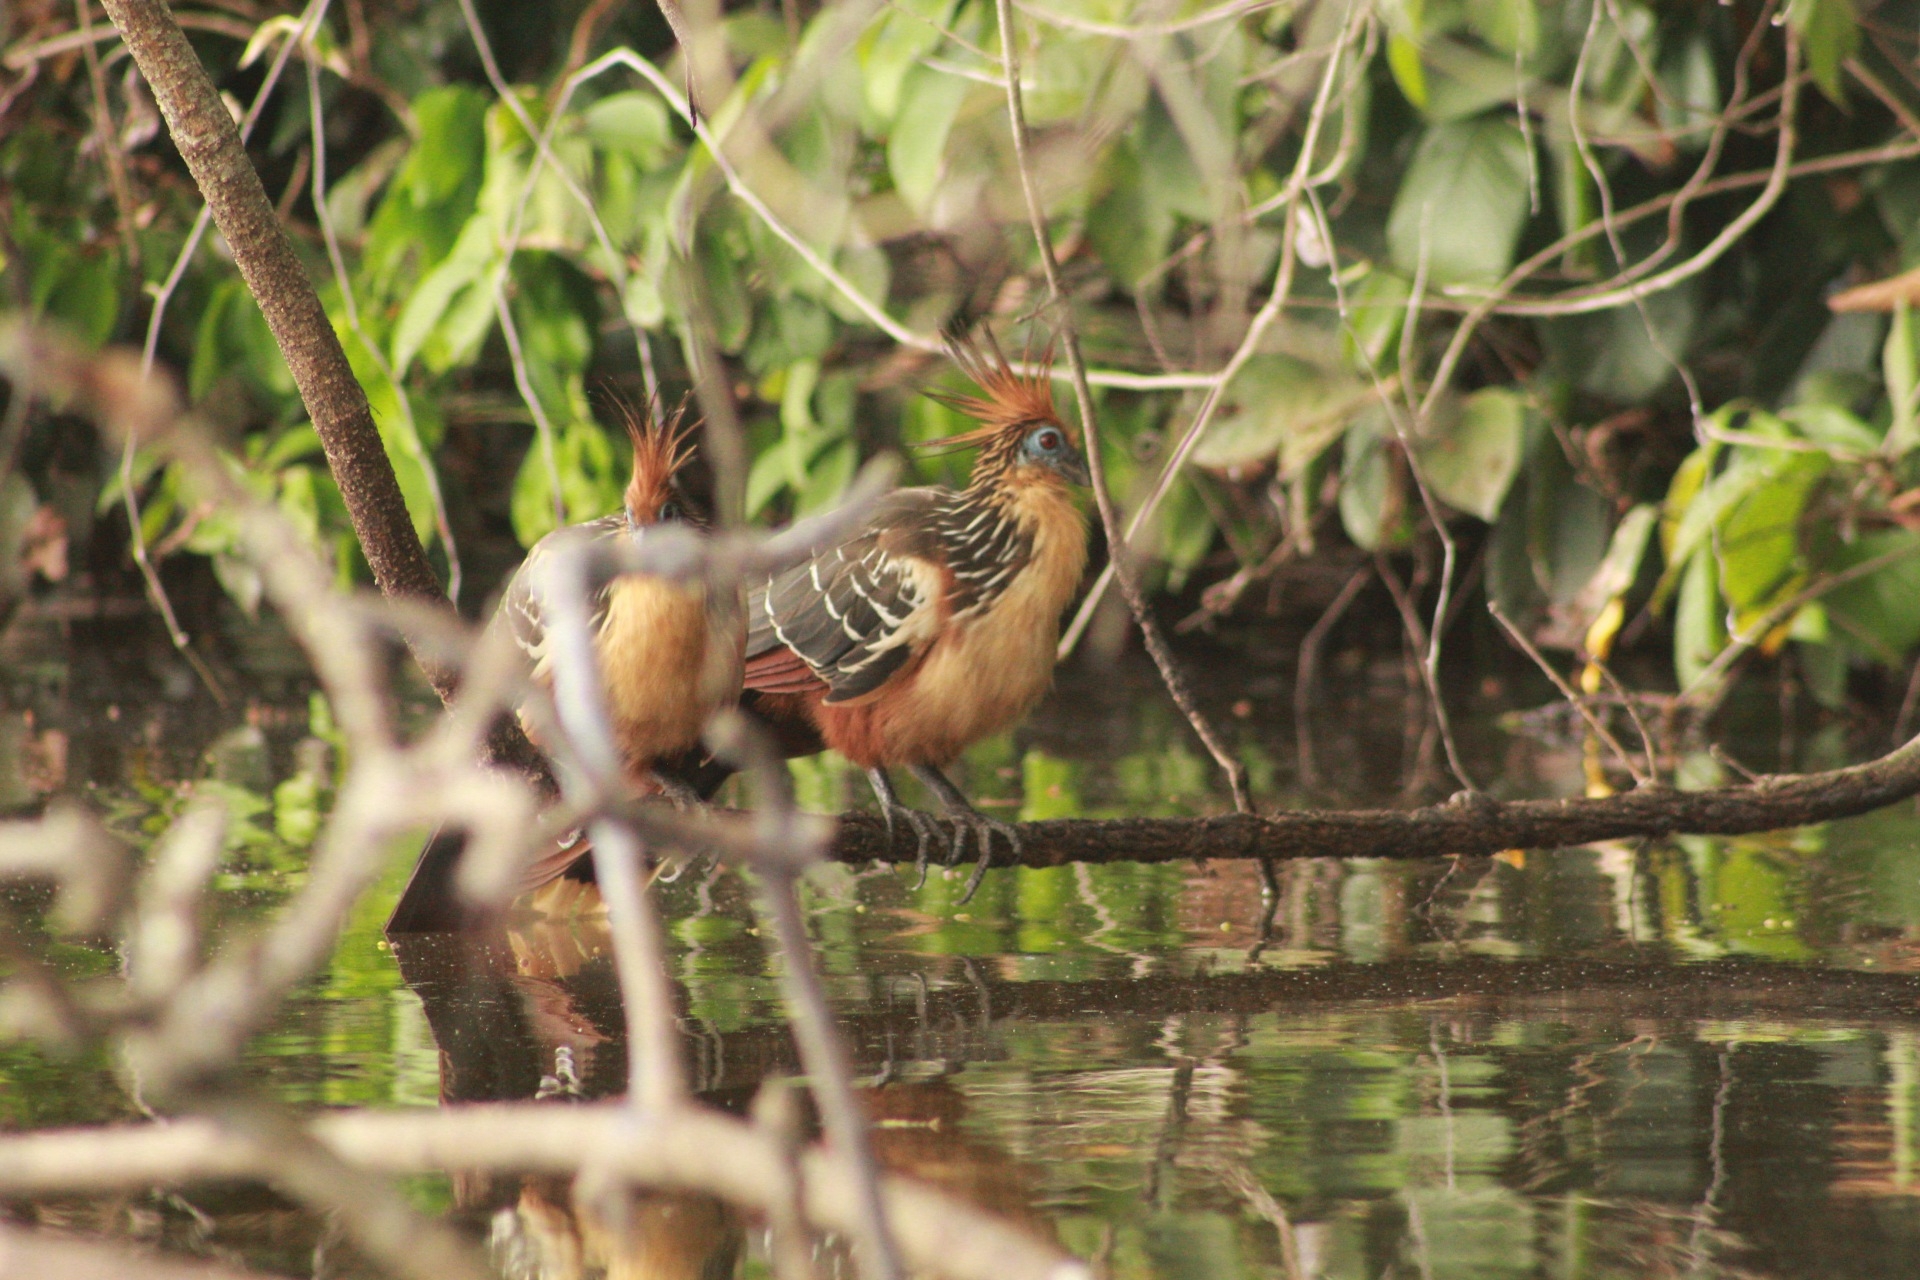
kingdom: Animalia
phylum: Chordata
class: Aves
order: Opisthocomiformes
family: Opisthocomidae
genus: Opisthocomus
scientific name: Opisthocomus hoazin
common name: Hoatzin
